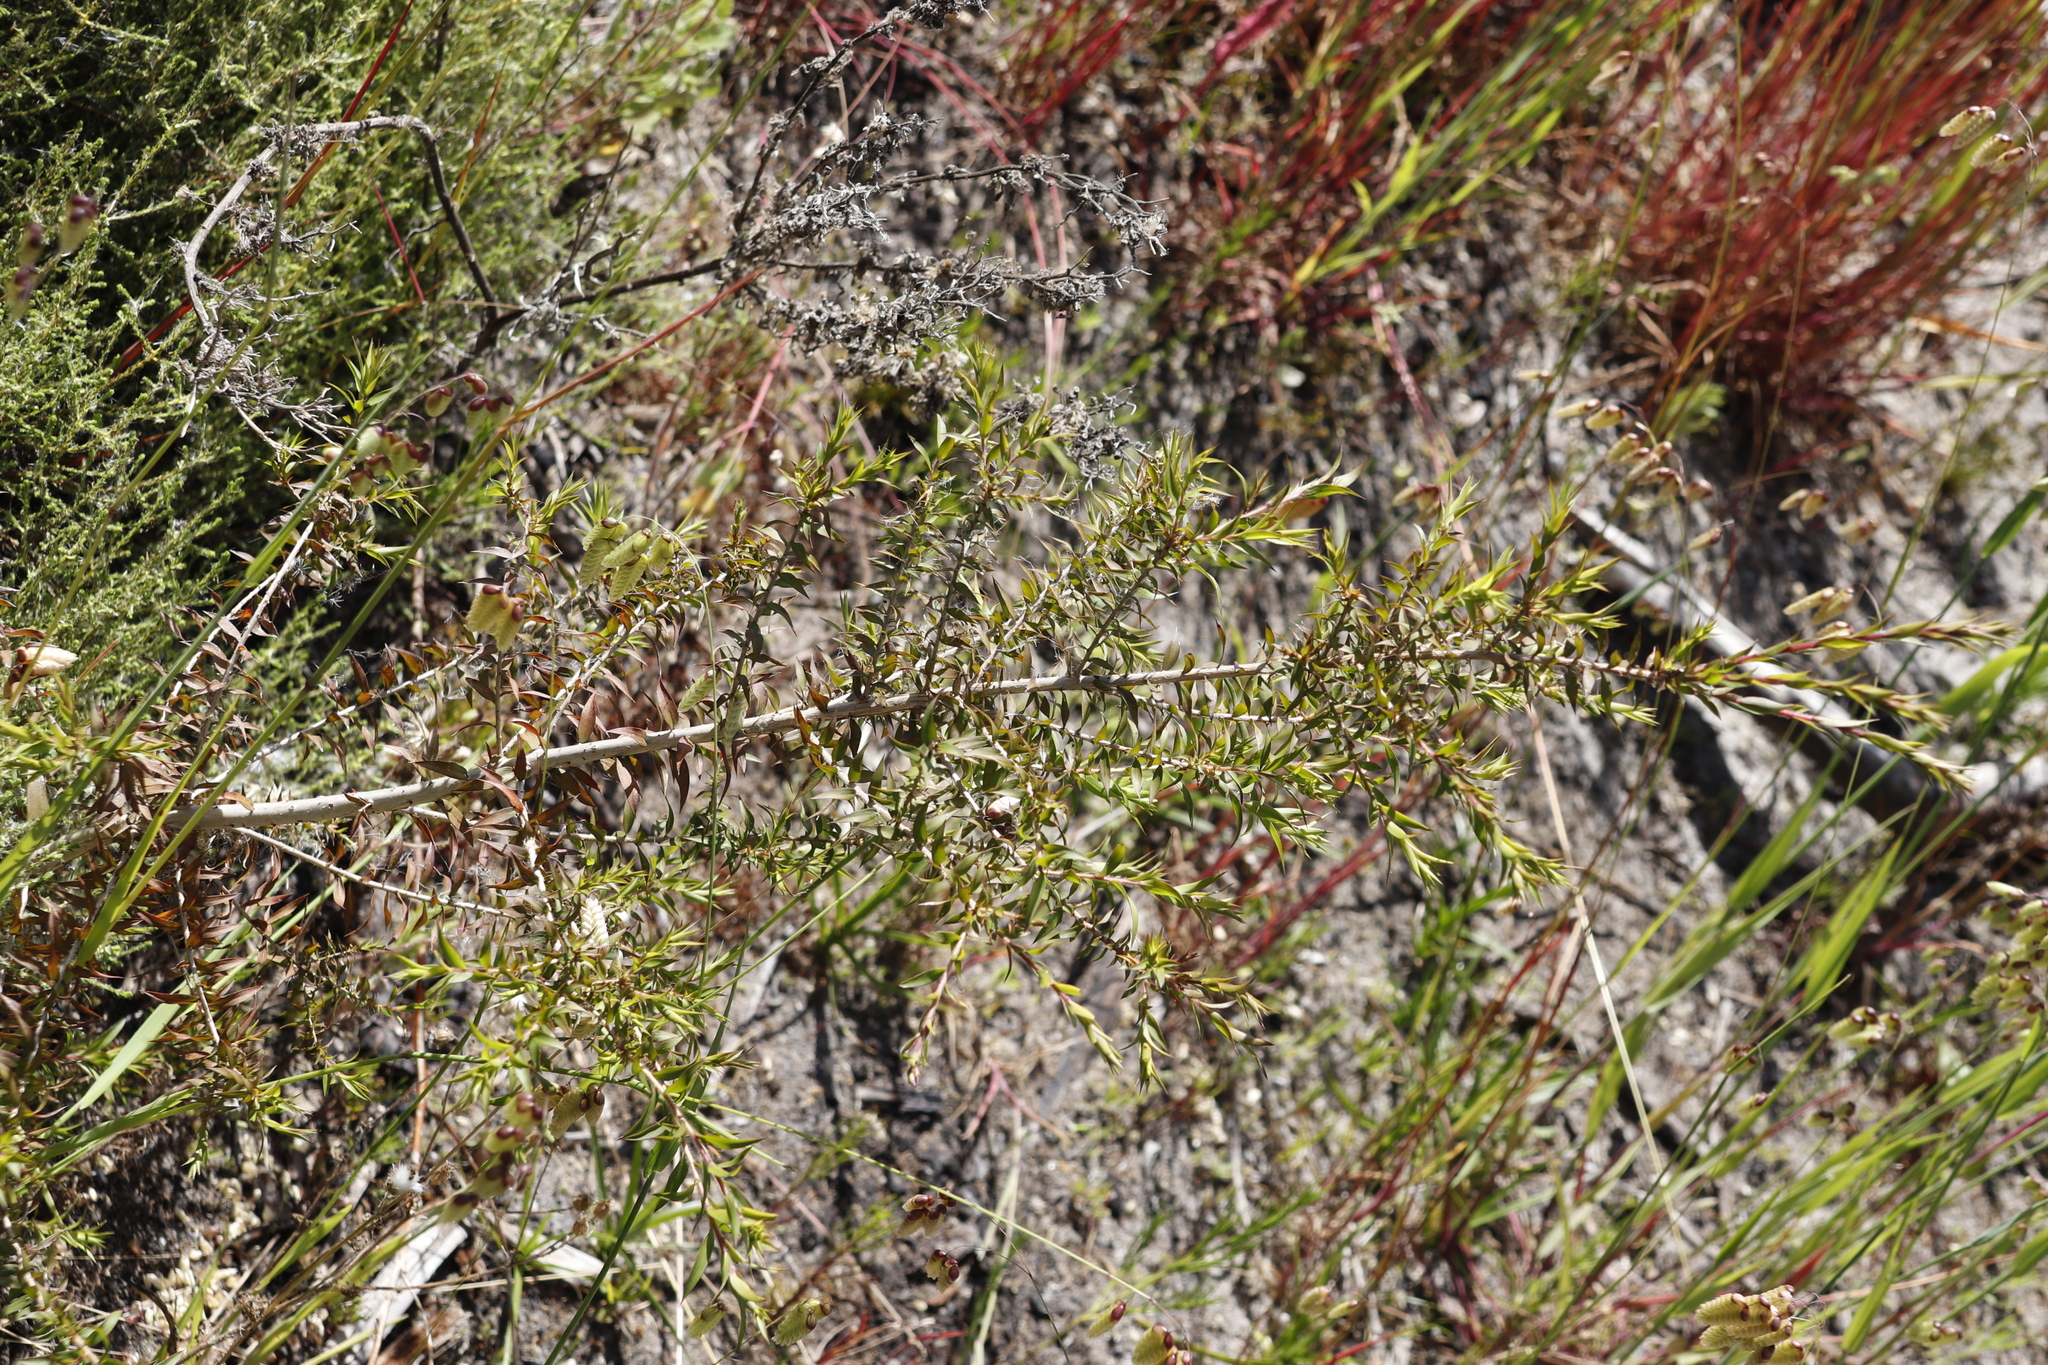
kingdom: Plantae
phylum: Tracheophyta
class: Magnoliopsida
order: Myrtales
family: Myrtaceae
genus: Melaleuca
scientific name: Melaleuca styphelioides
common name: Prickly paperbark
